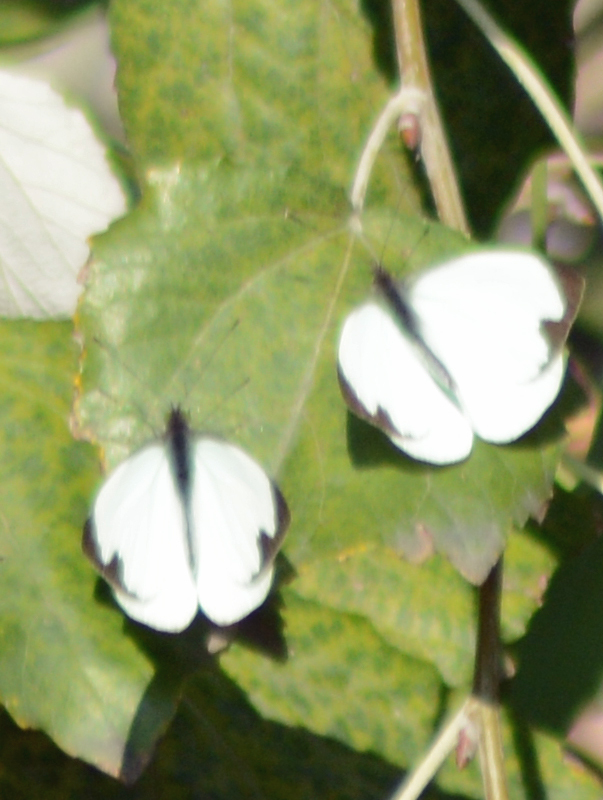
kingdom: Animalia
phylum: Arthropoda
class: Insecta
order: Lepidoptera
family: Pieridae
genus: Leptophobia
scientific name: Leptophobia aripa
